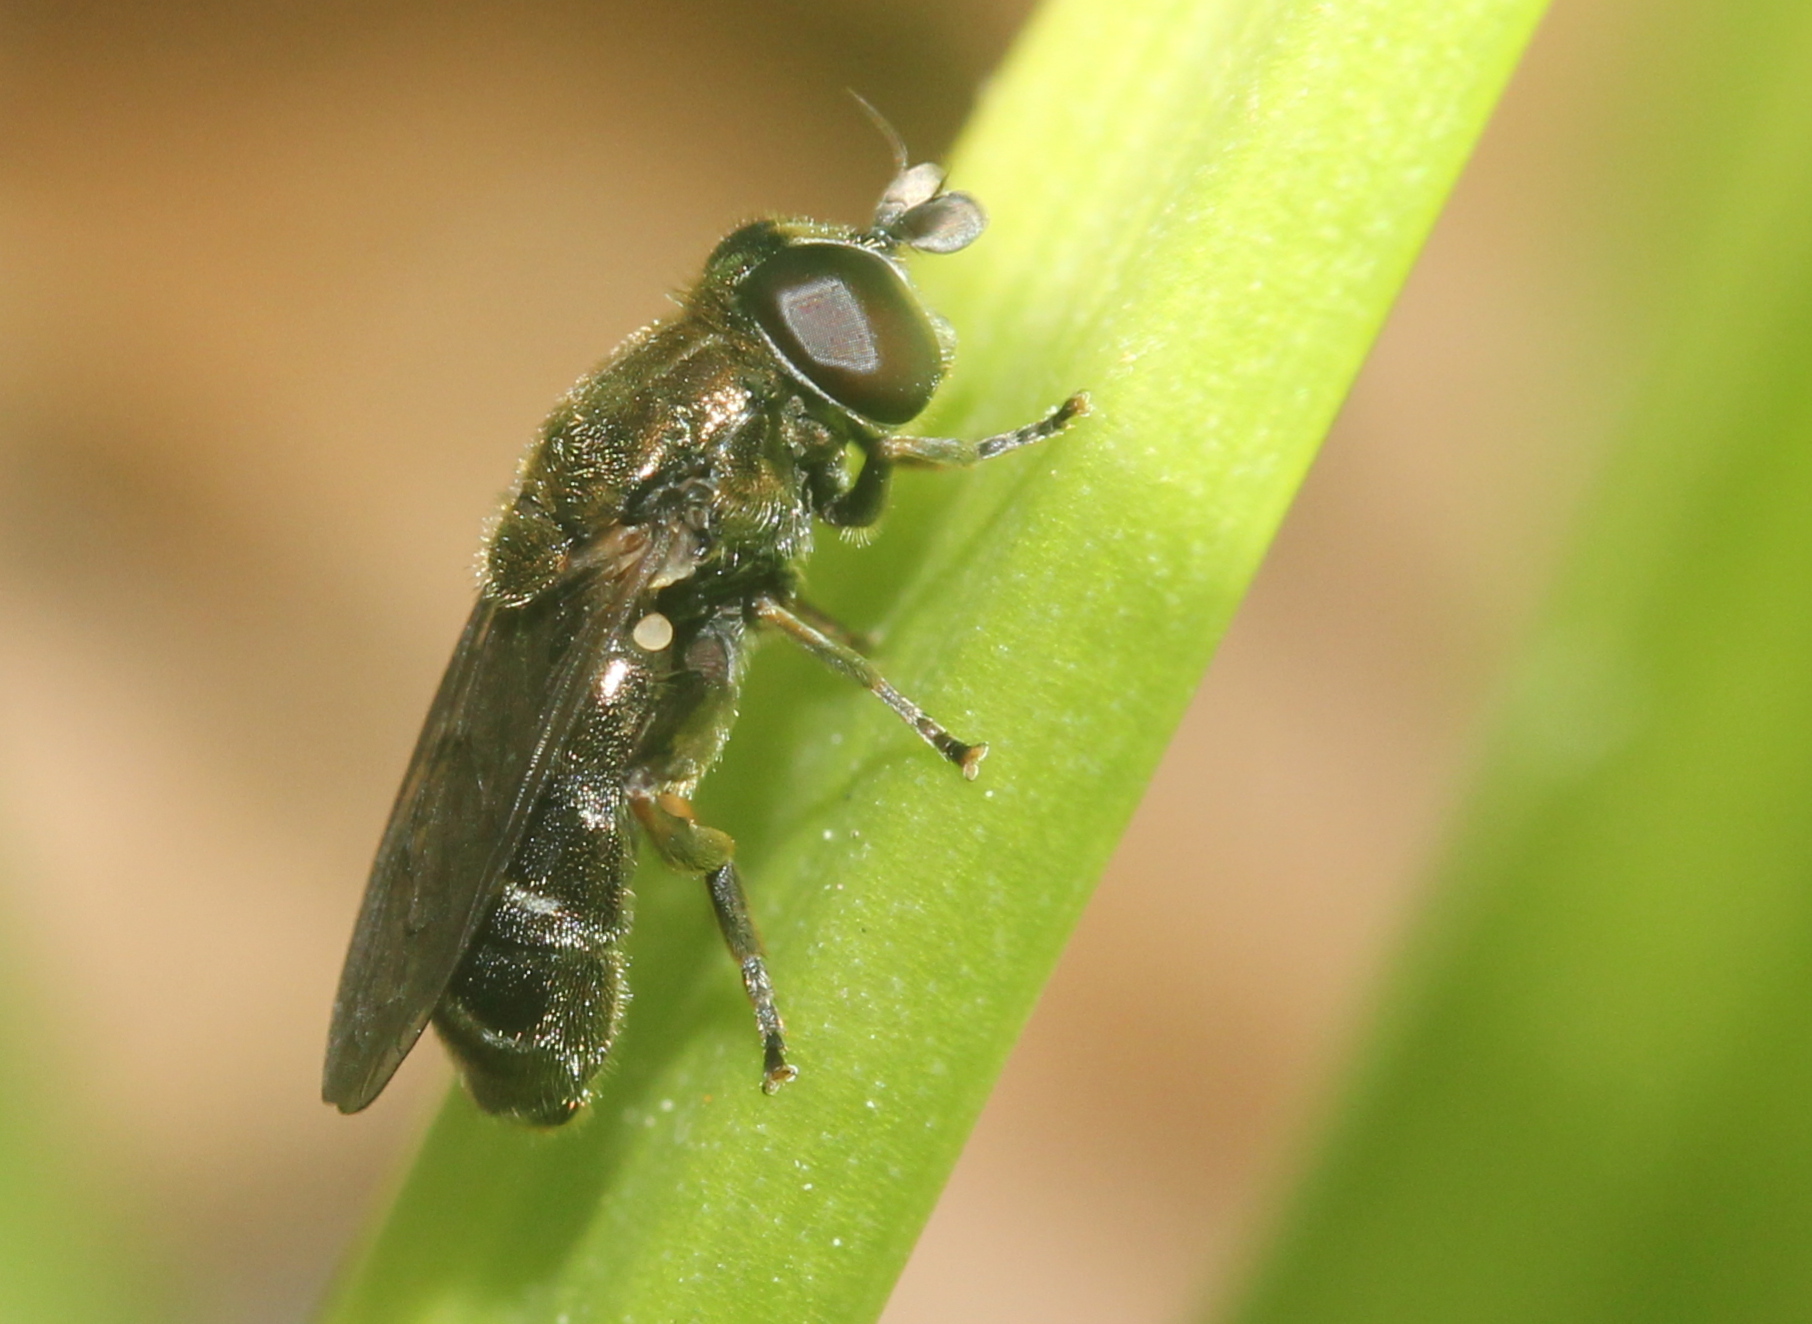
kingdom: Animalia
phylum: Arthropoda
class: Insecta
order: Diptera
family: Syrphidae
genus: Eumerus
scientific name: Eumerus
